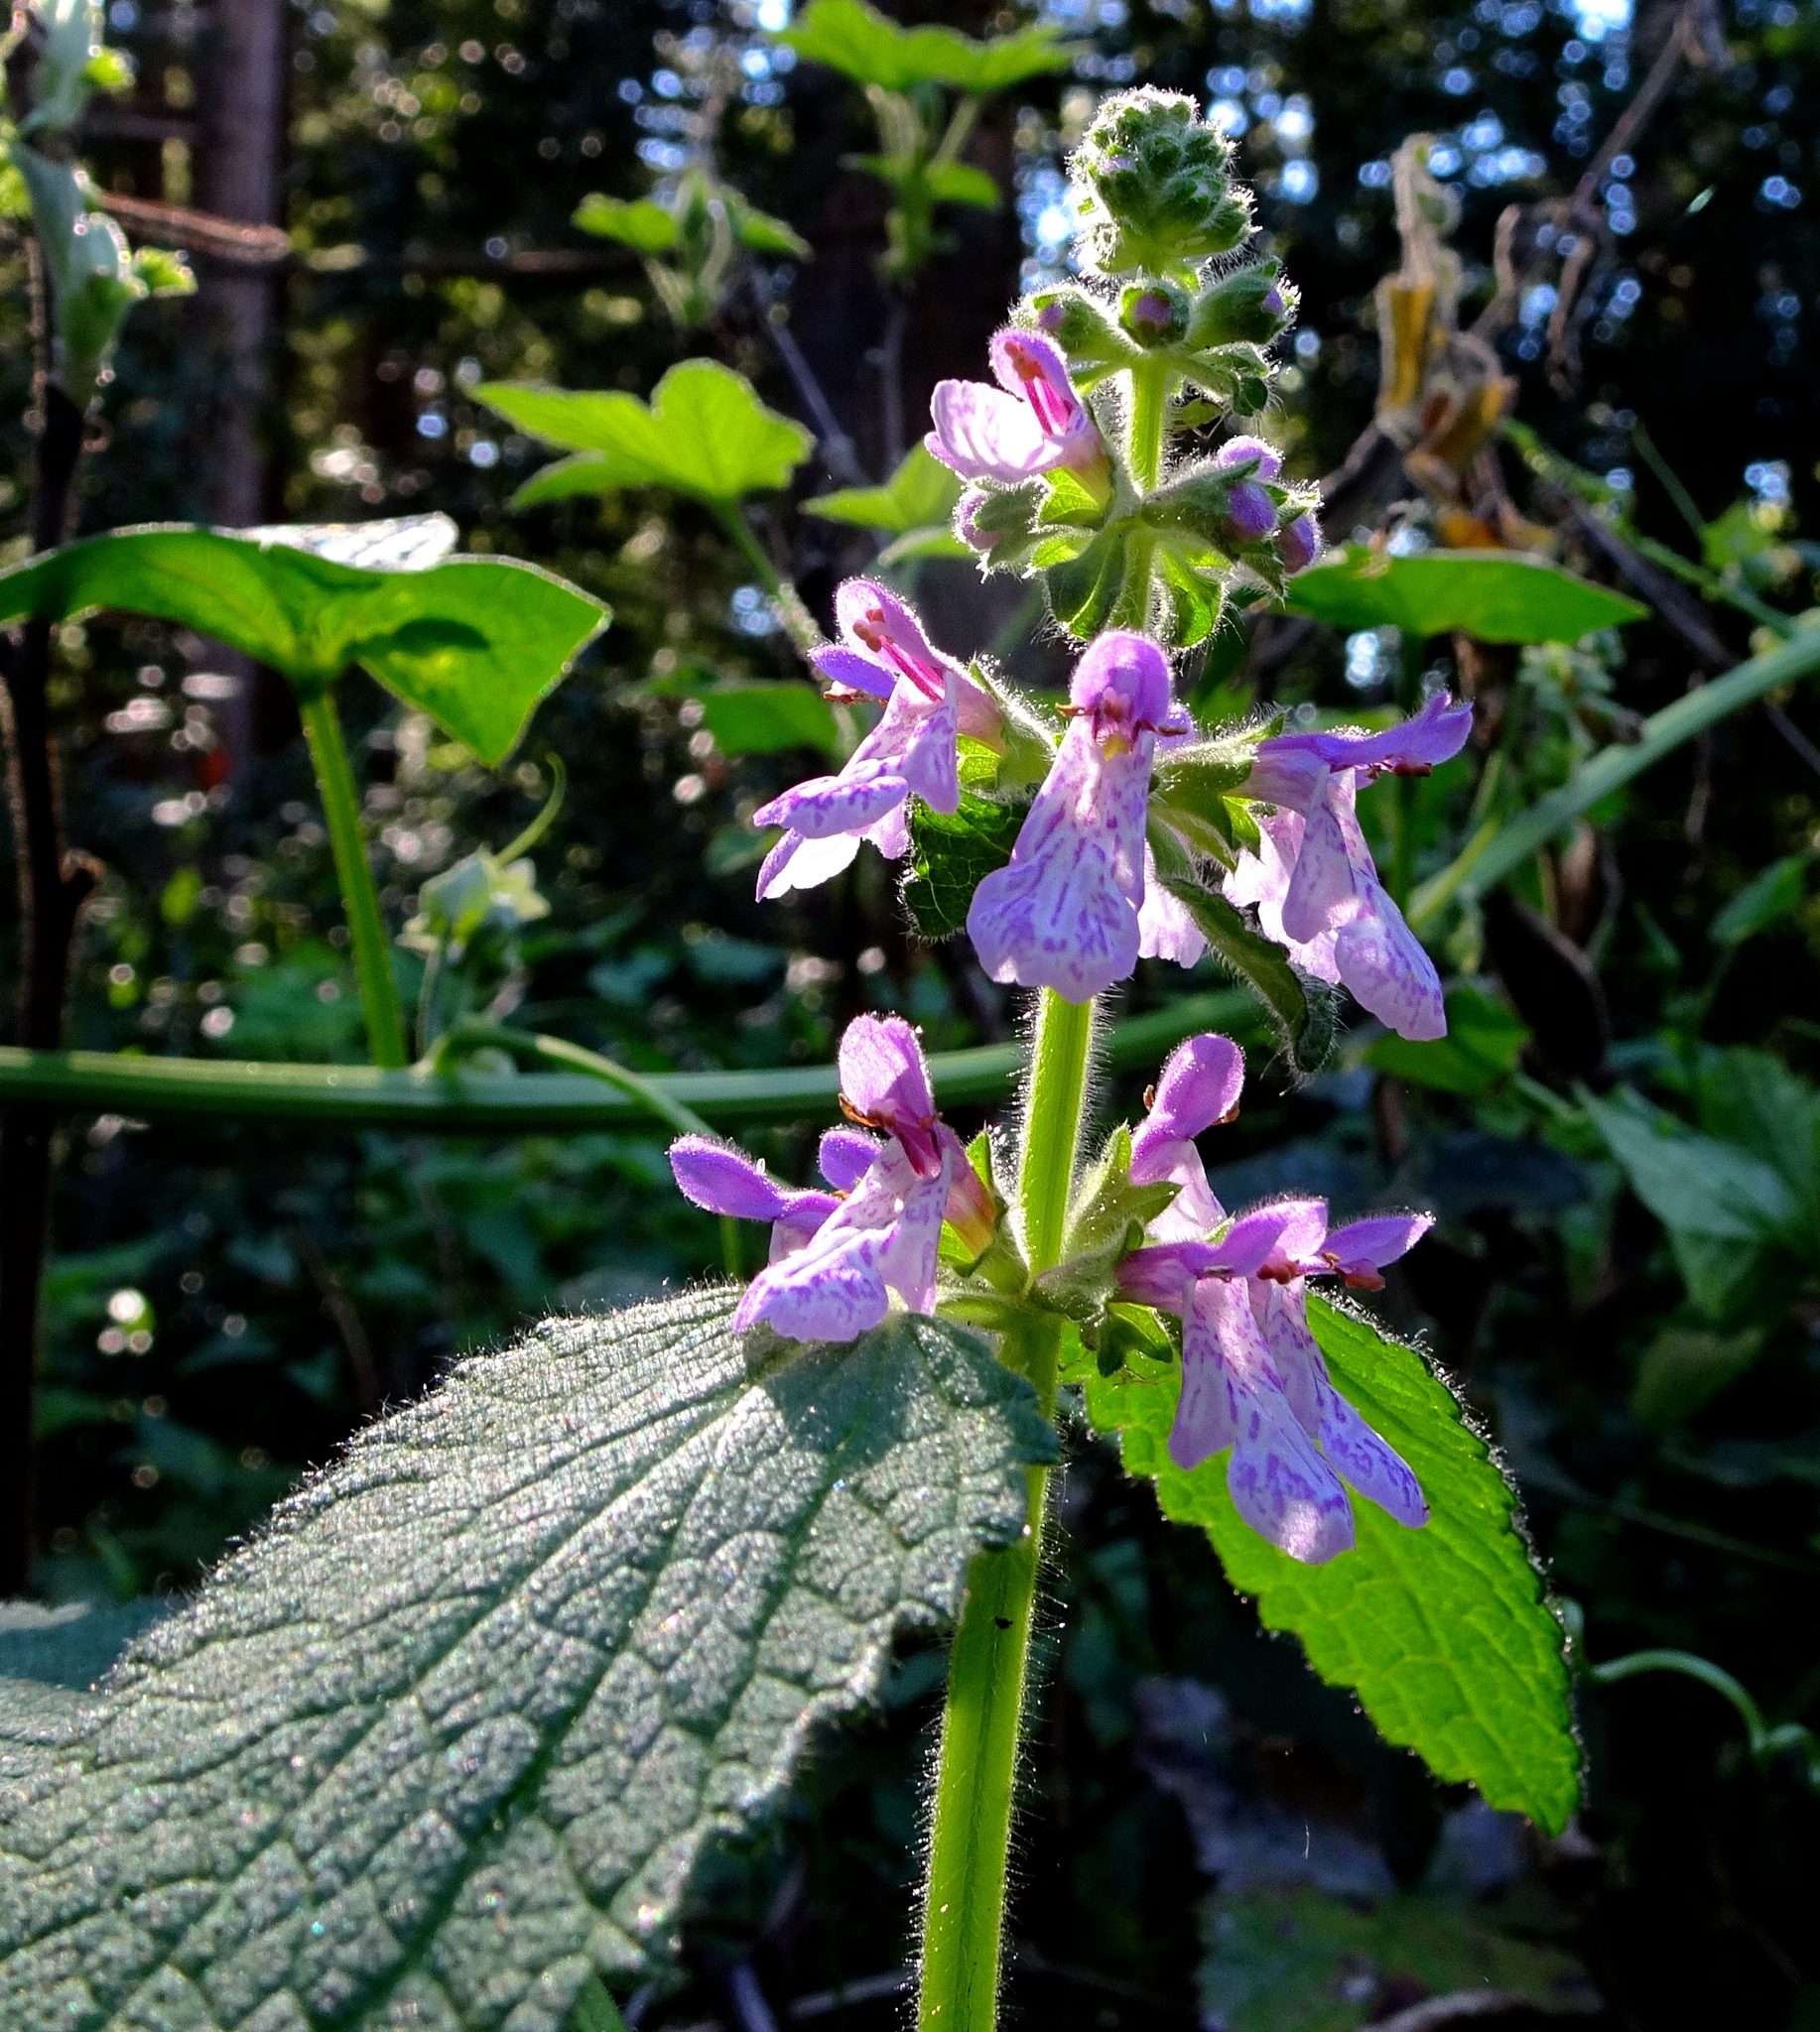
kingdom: Plantae
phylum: Tracheophyta
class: Magnoliopsida
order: Lamiales
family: Lamiaceae
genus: Stachys
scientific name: Stachys bullata
